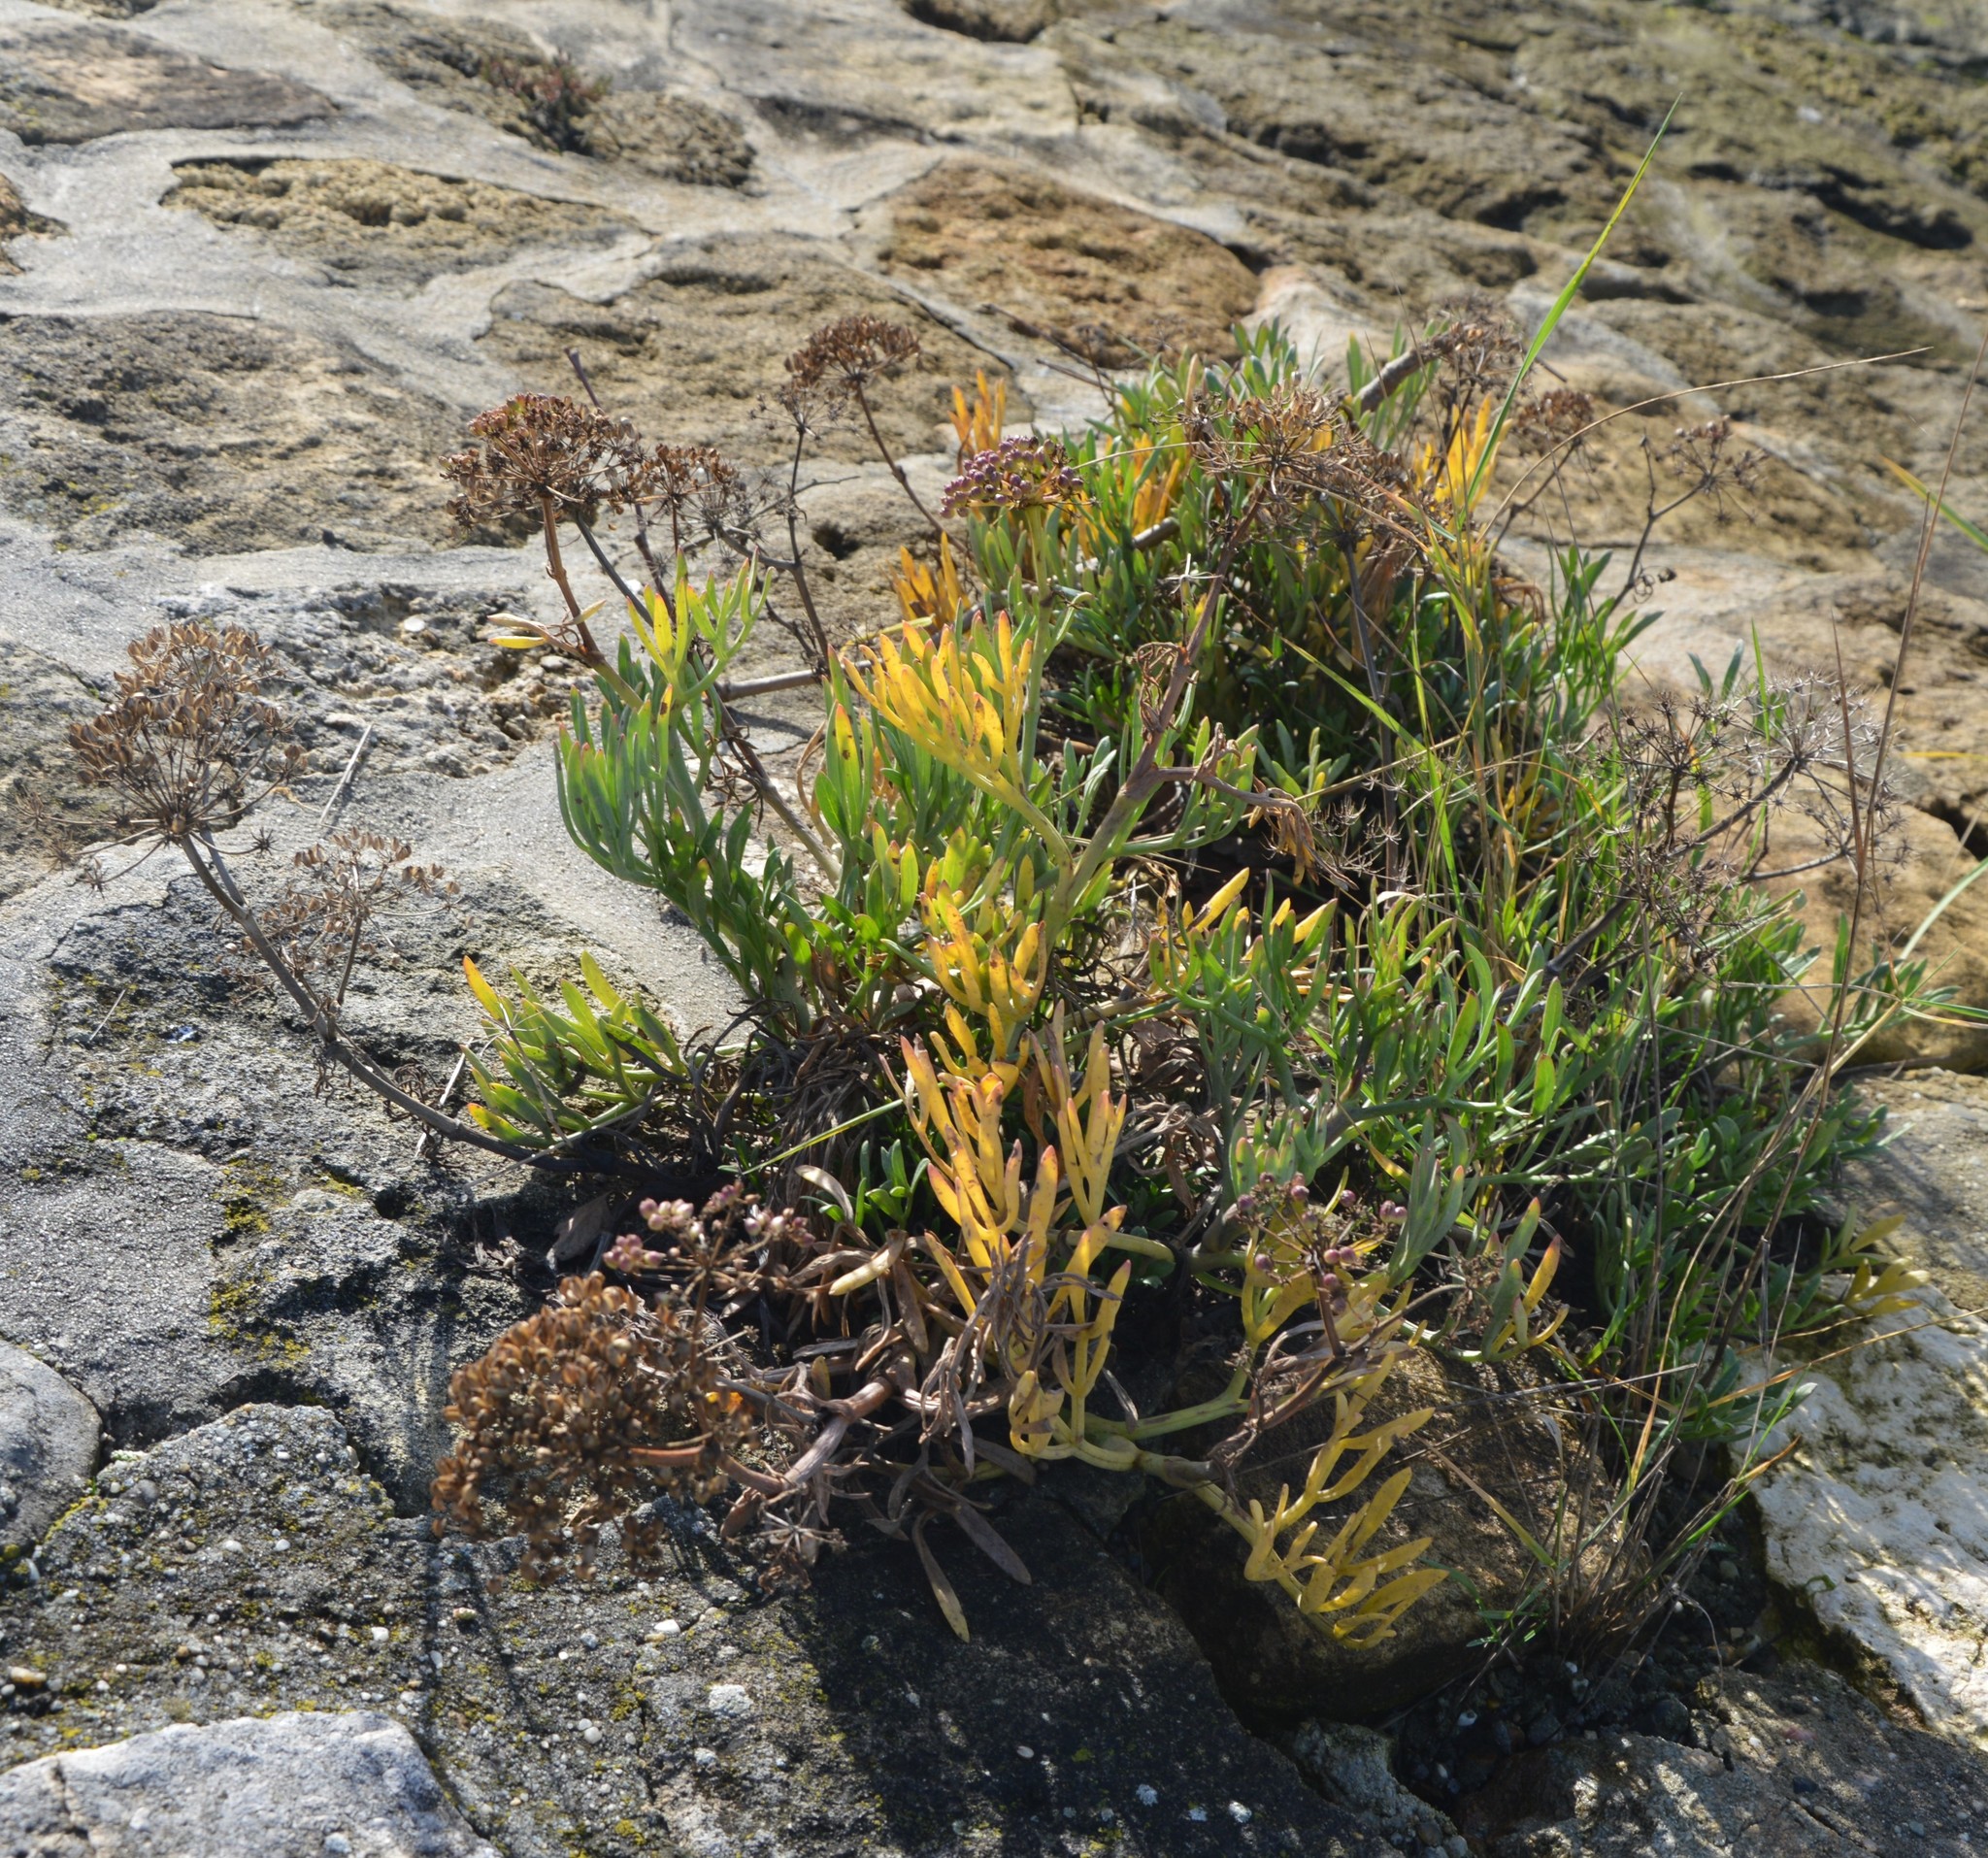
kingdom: Plantae
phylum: Tracheophyta
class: Magnoliopsida
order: Apiales
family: Apiaceae
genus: Crithmum
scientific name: Crithmum maritimum
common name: Rock samphire
